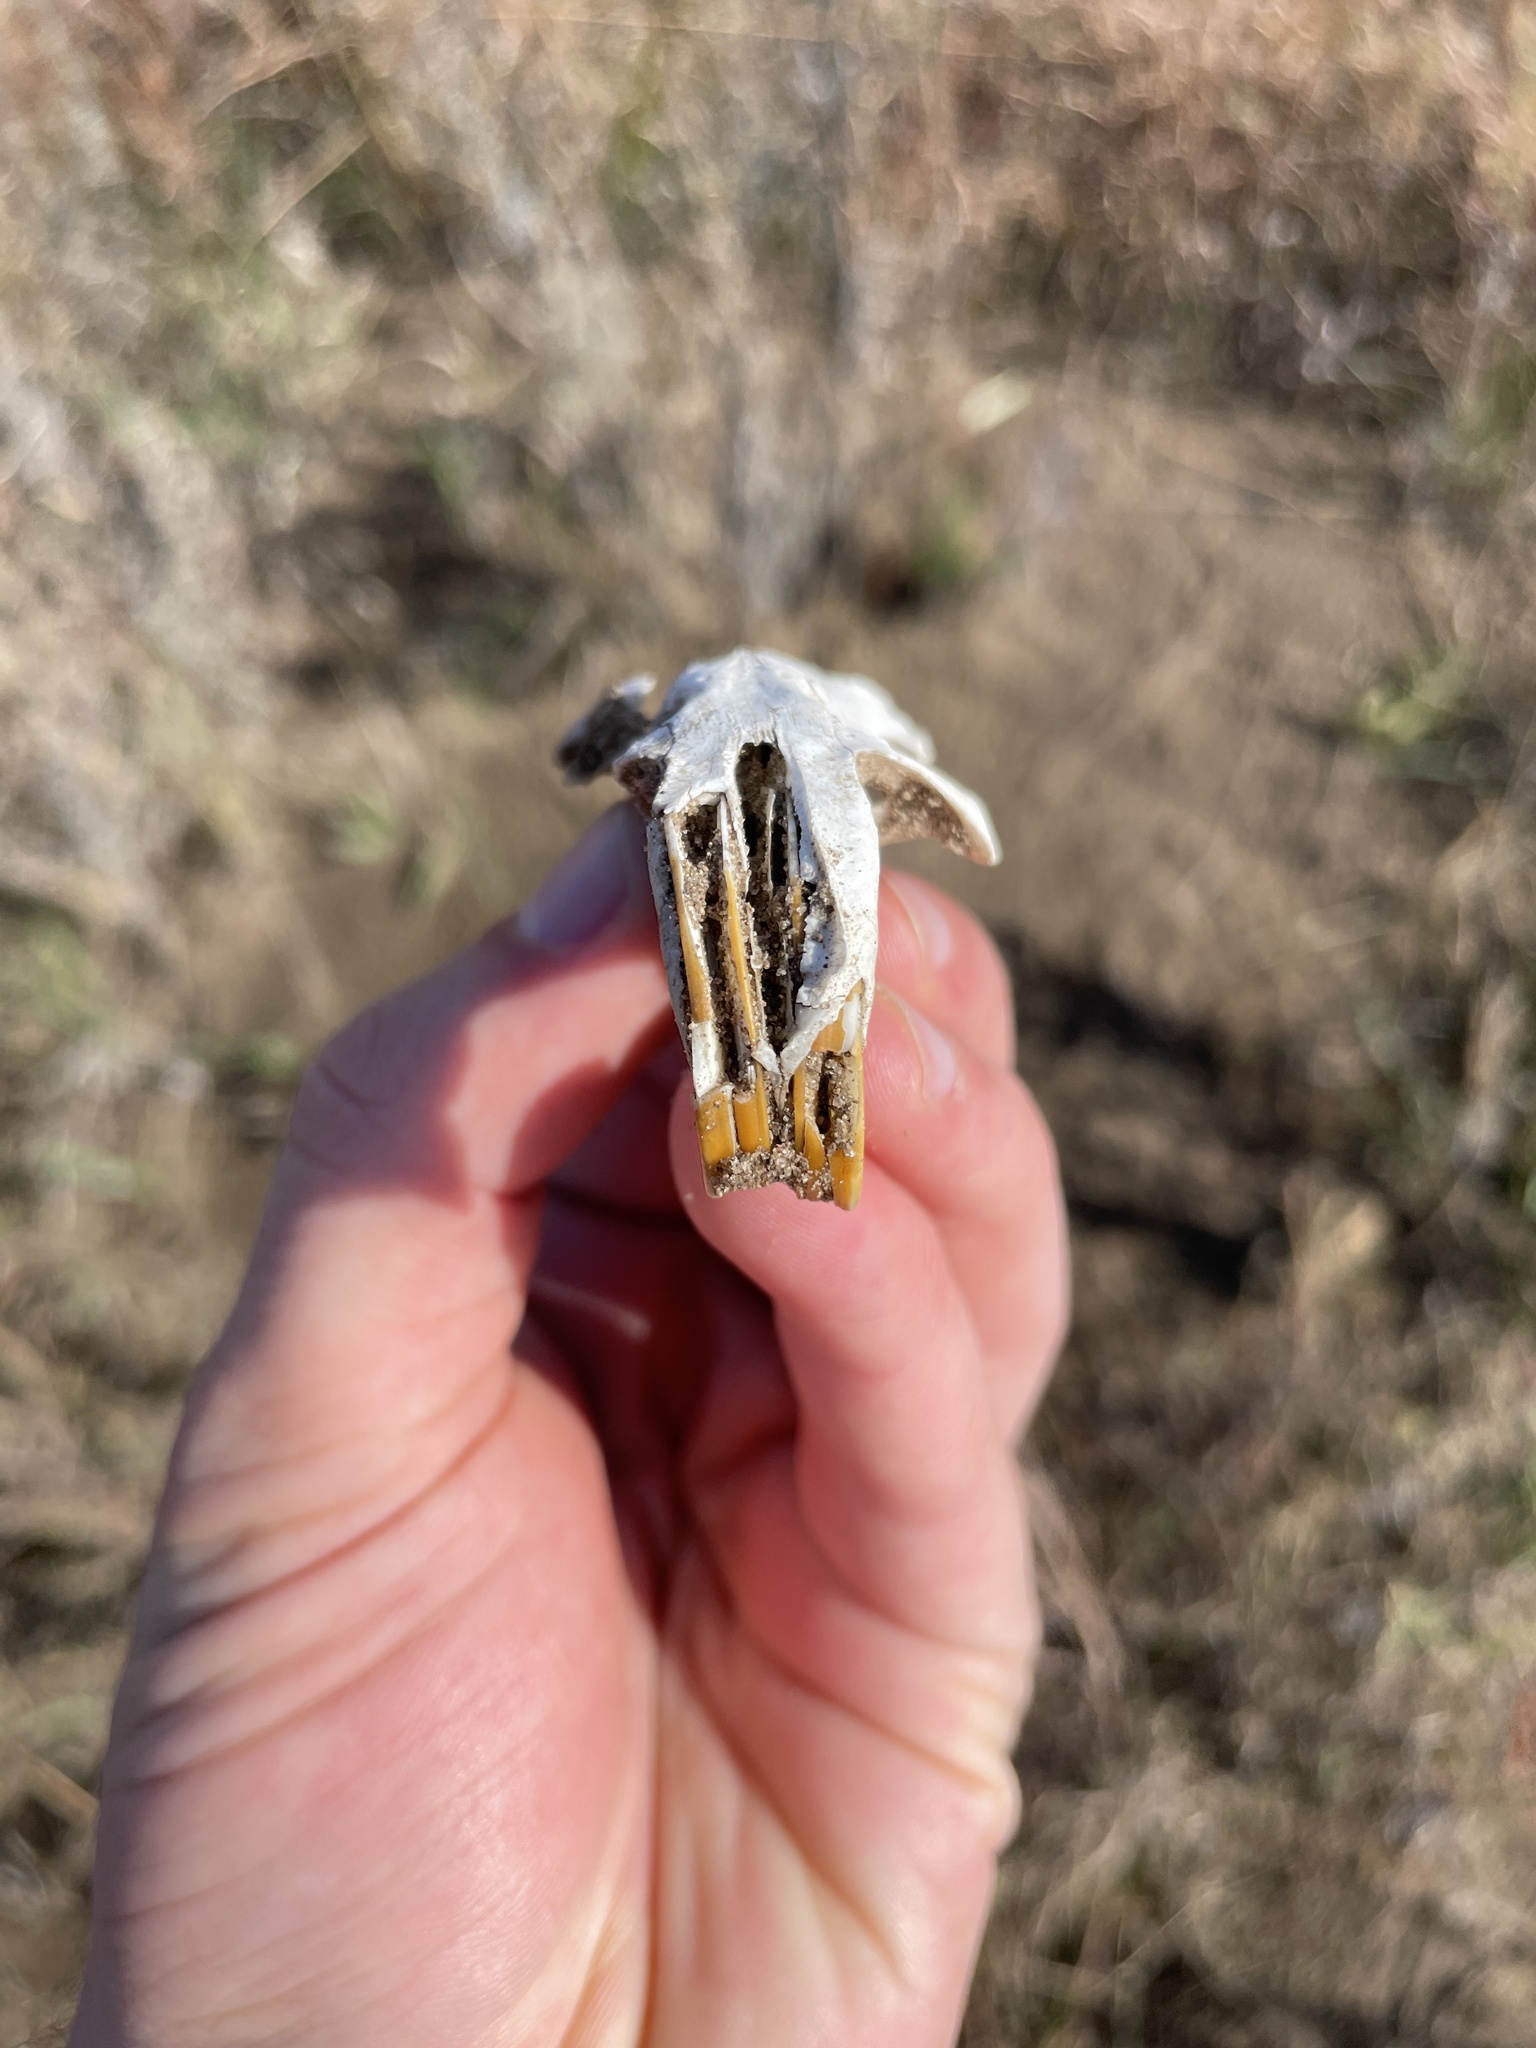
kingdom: Animalia
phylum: Chordata
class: Mammalia
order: Rodentia
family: Geomyidae
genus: Geomys
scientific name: Geomys bursarius
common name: Plains pocket gopher
